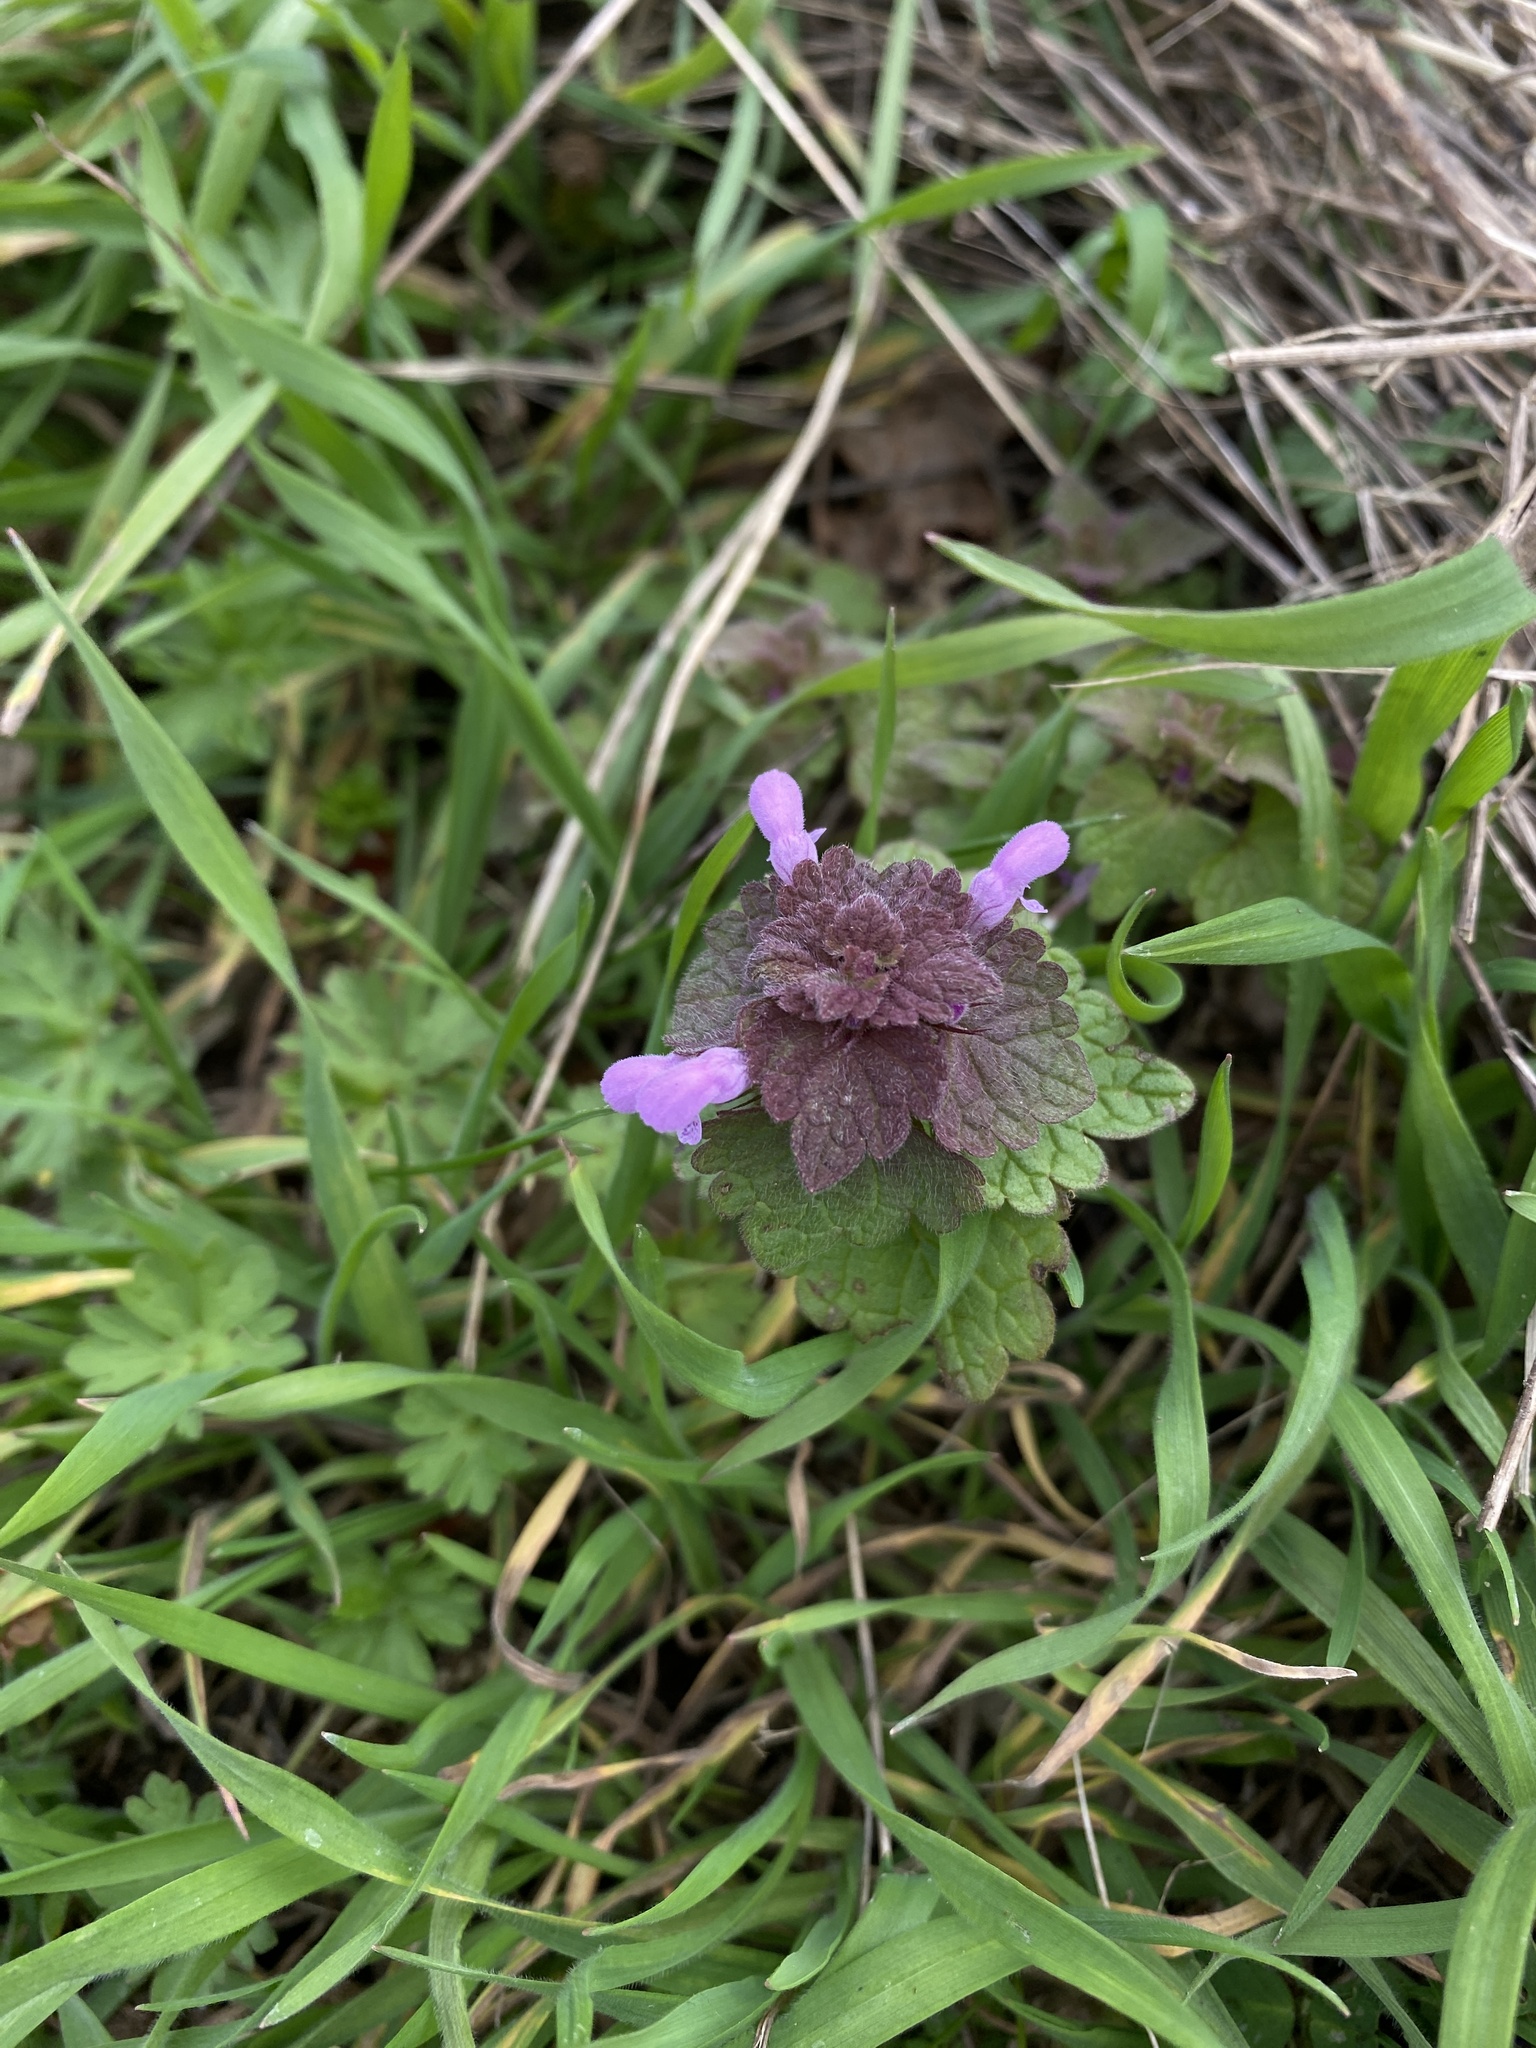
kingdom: Plantae
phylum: Tracheophyta
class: Magnoliopsida
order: Lamiales
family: Lamiaceae
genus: Lamium
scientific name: Lamium purpureum
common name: Red dead-nettle
